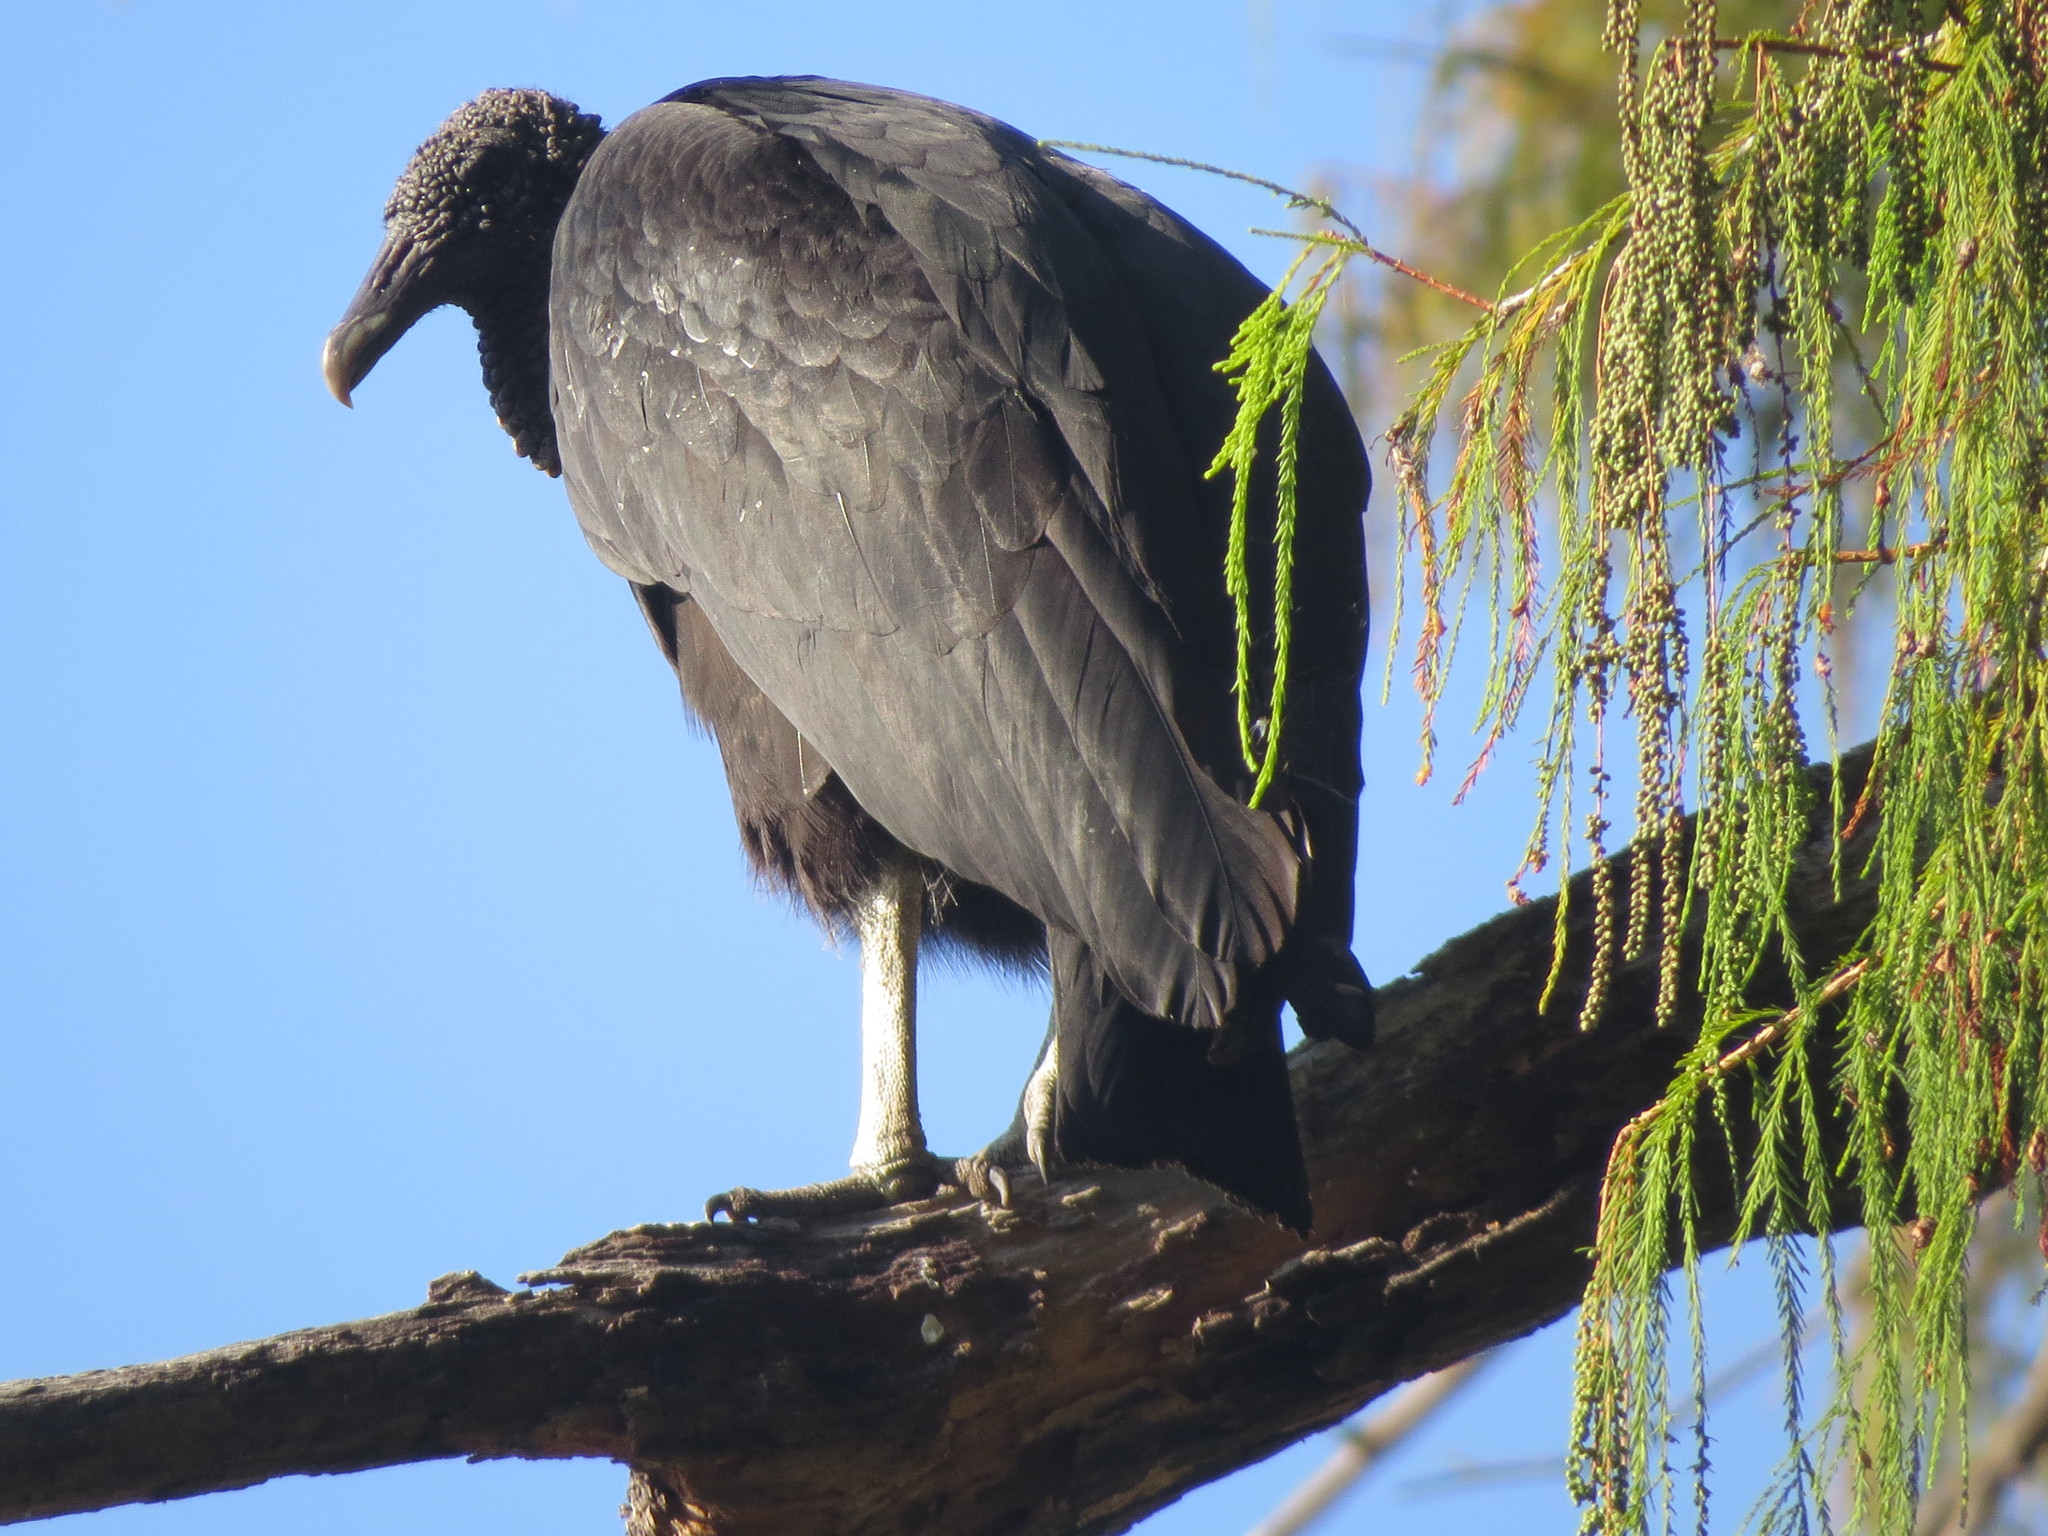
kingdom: Animalia
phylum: Chordata
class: Aves
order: Accipitriformes
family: Cathartidae
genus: Coragyps
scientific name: Coragyps atratus
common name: Black vulture
